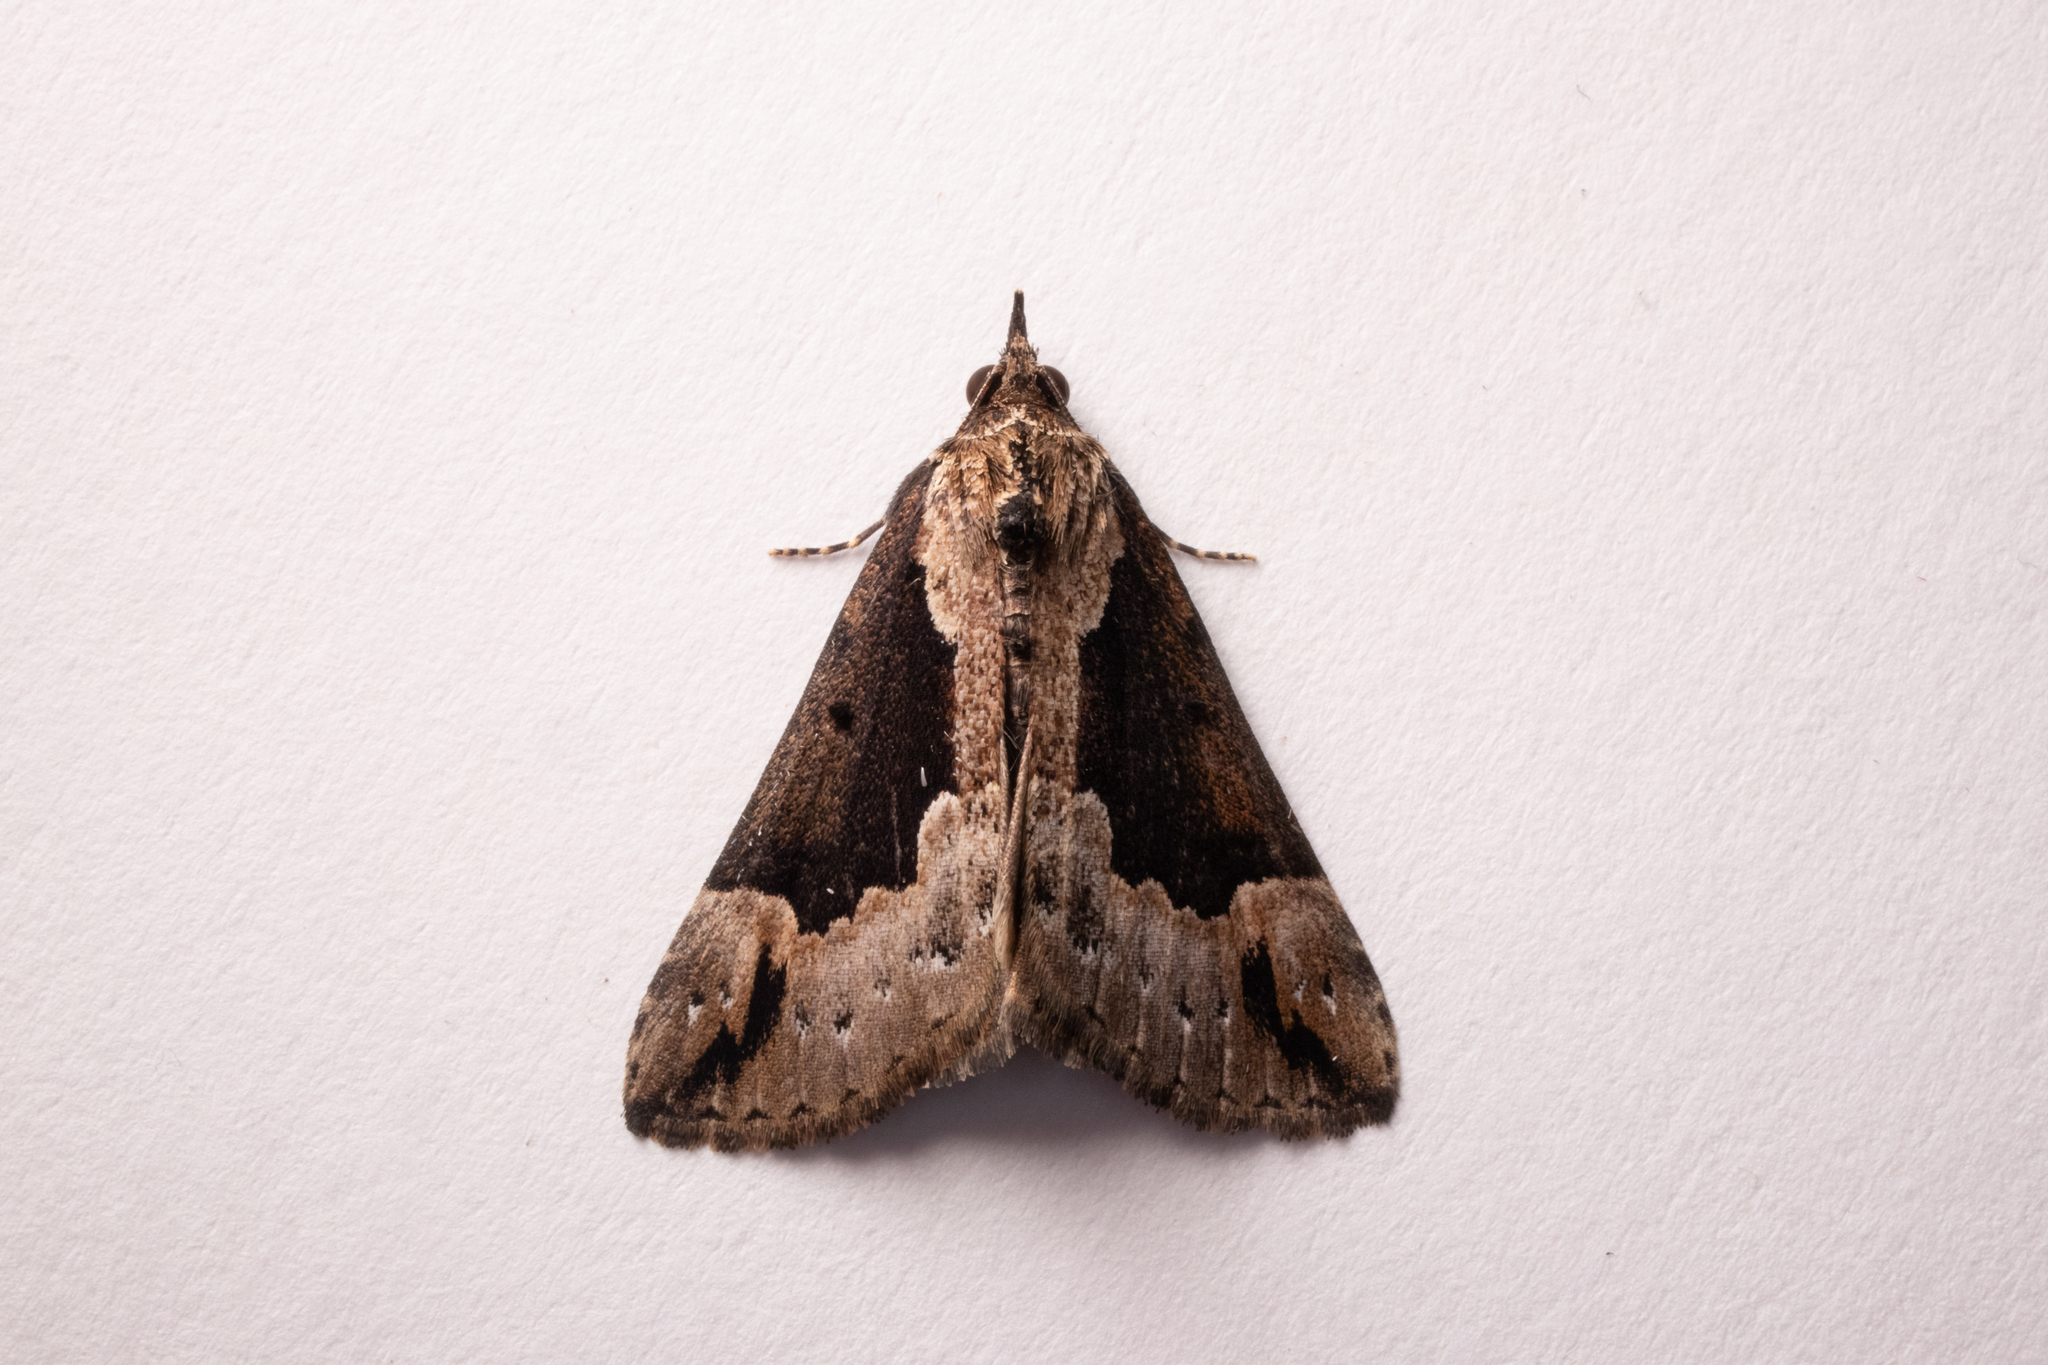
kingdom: Animalia
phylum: Arthropoda
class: Insecta
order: Lepidoptera
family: Erebidae
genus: Hypena
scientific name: Hypena baltimoralis
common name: Baltimore snout
